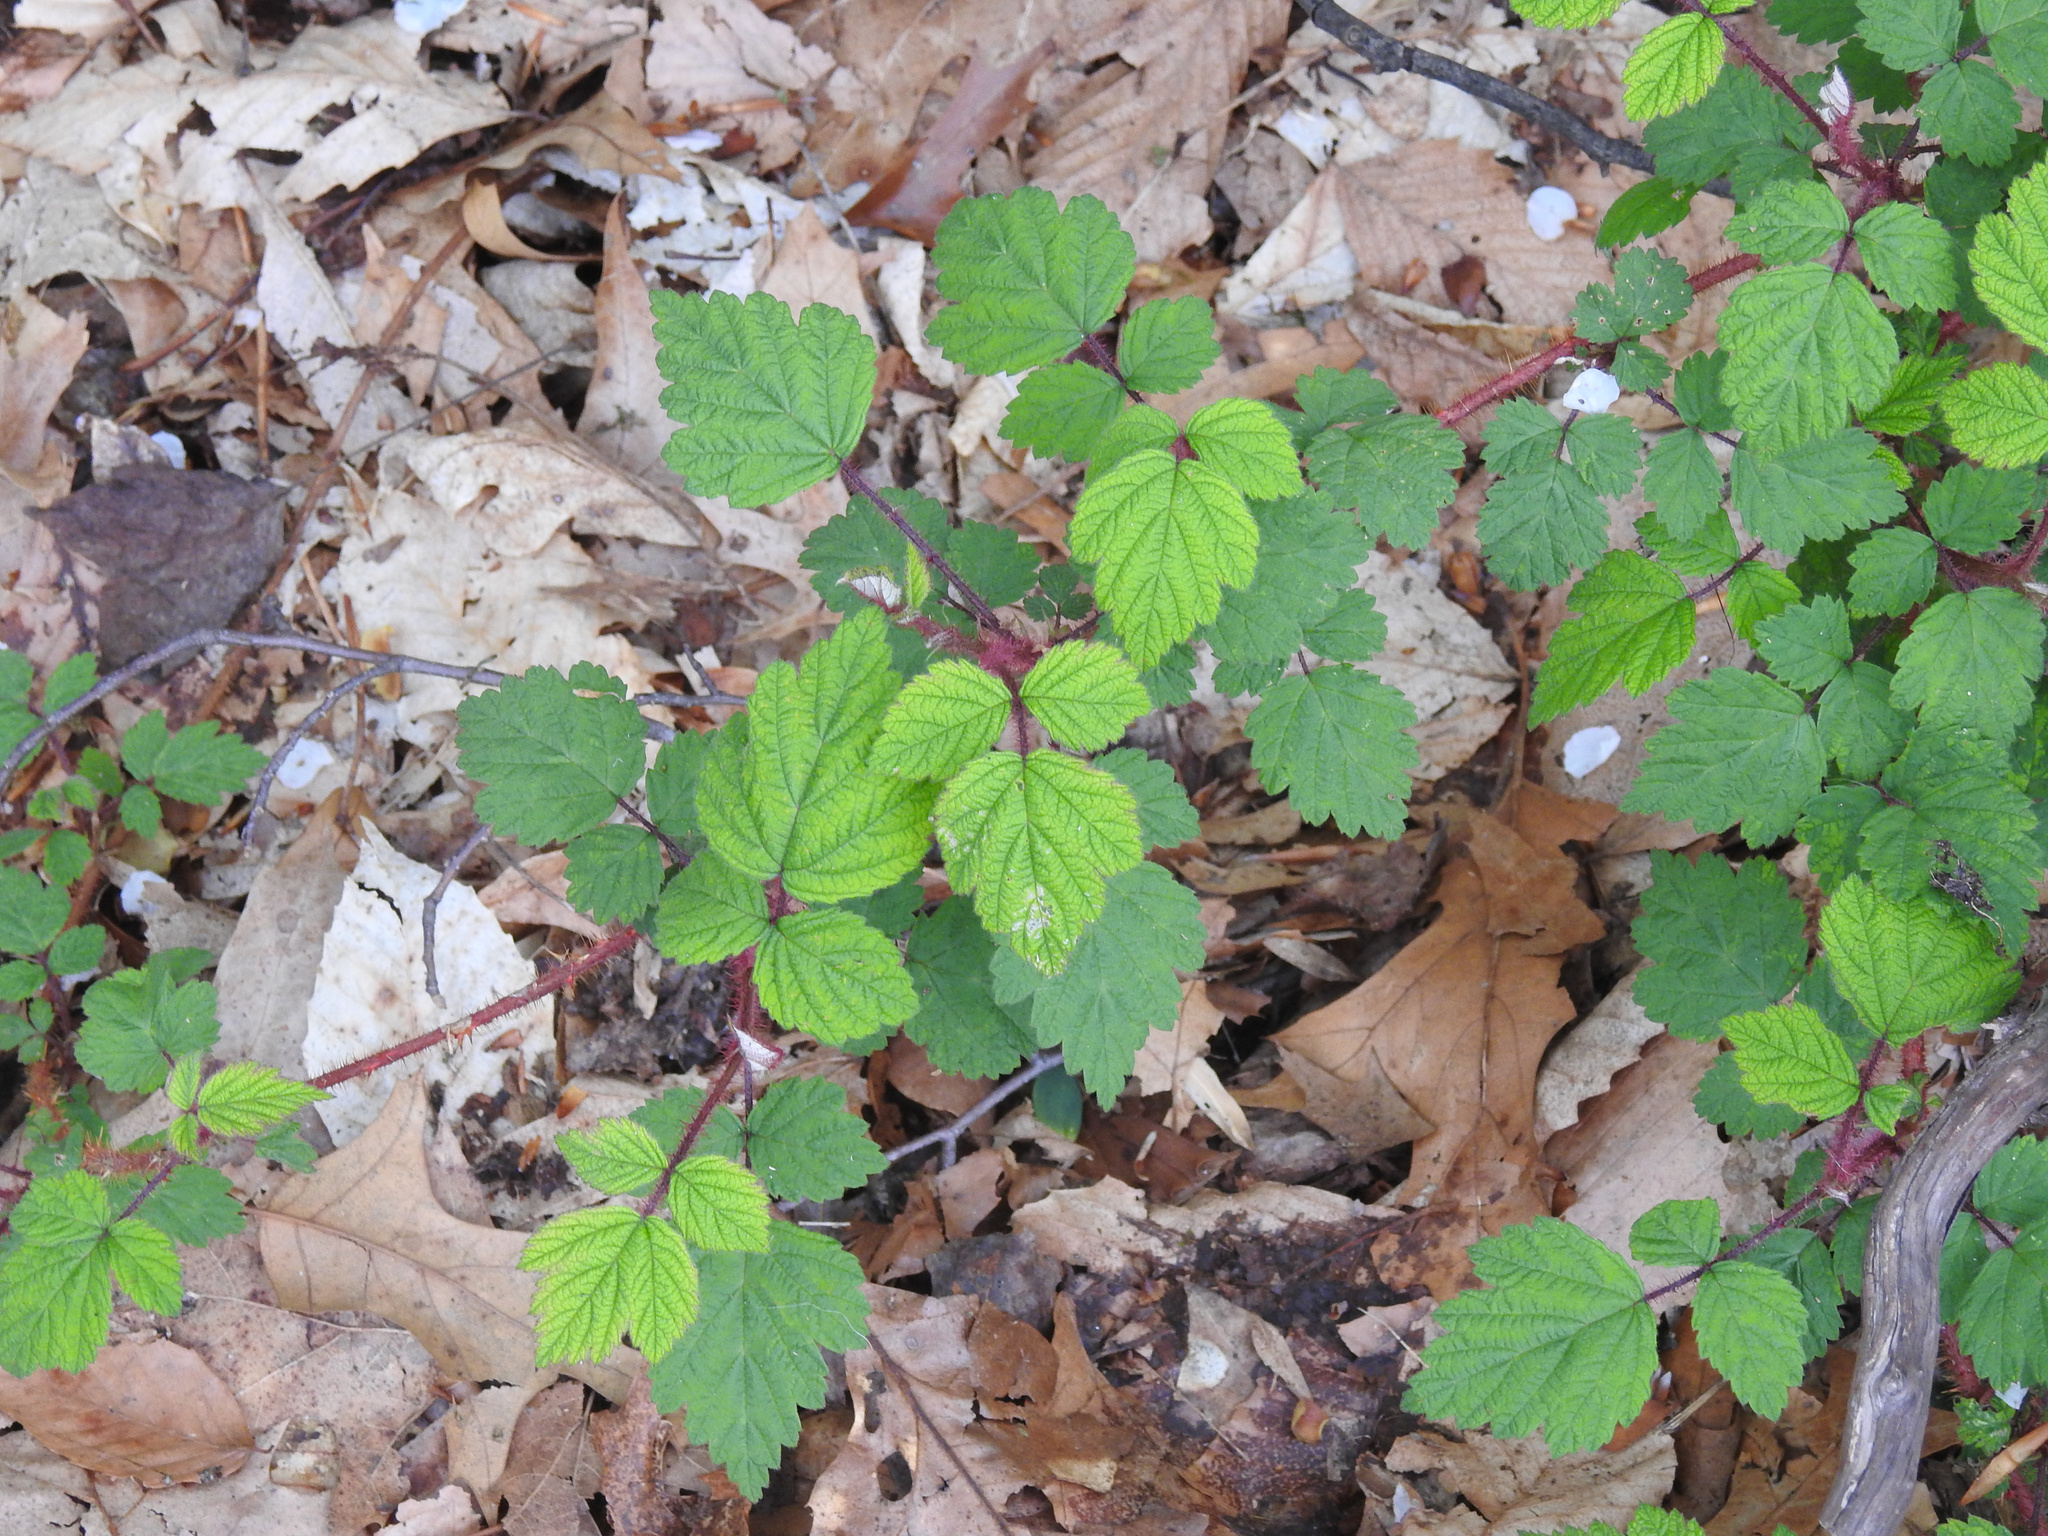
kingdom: Plantae
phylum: Tracheophyta
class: Magnoliopsida
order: Rosales
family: Rosaceae
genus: Rubus
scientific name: Rubus phoenicolasius
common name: Japanese wineberry
